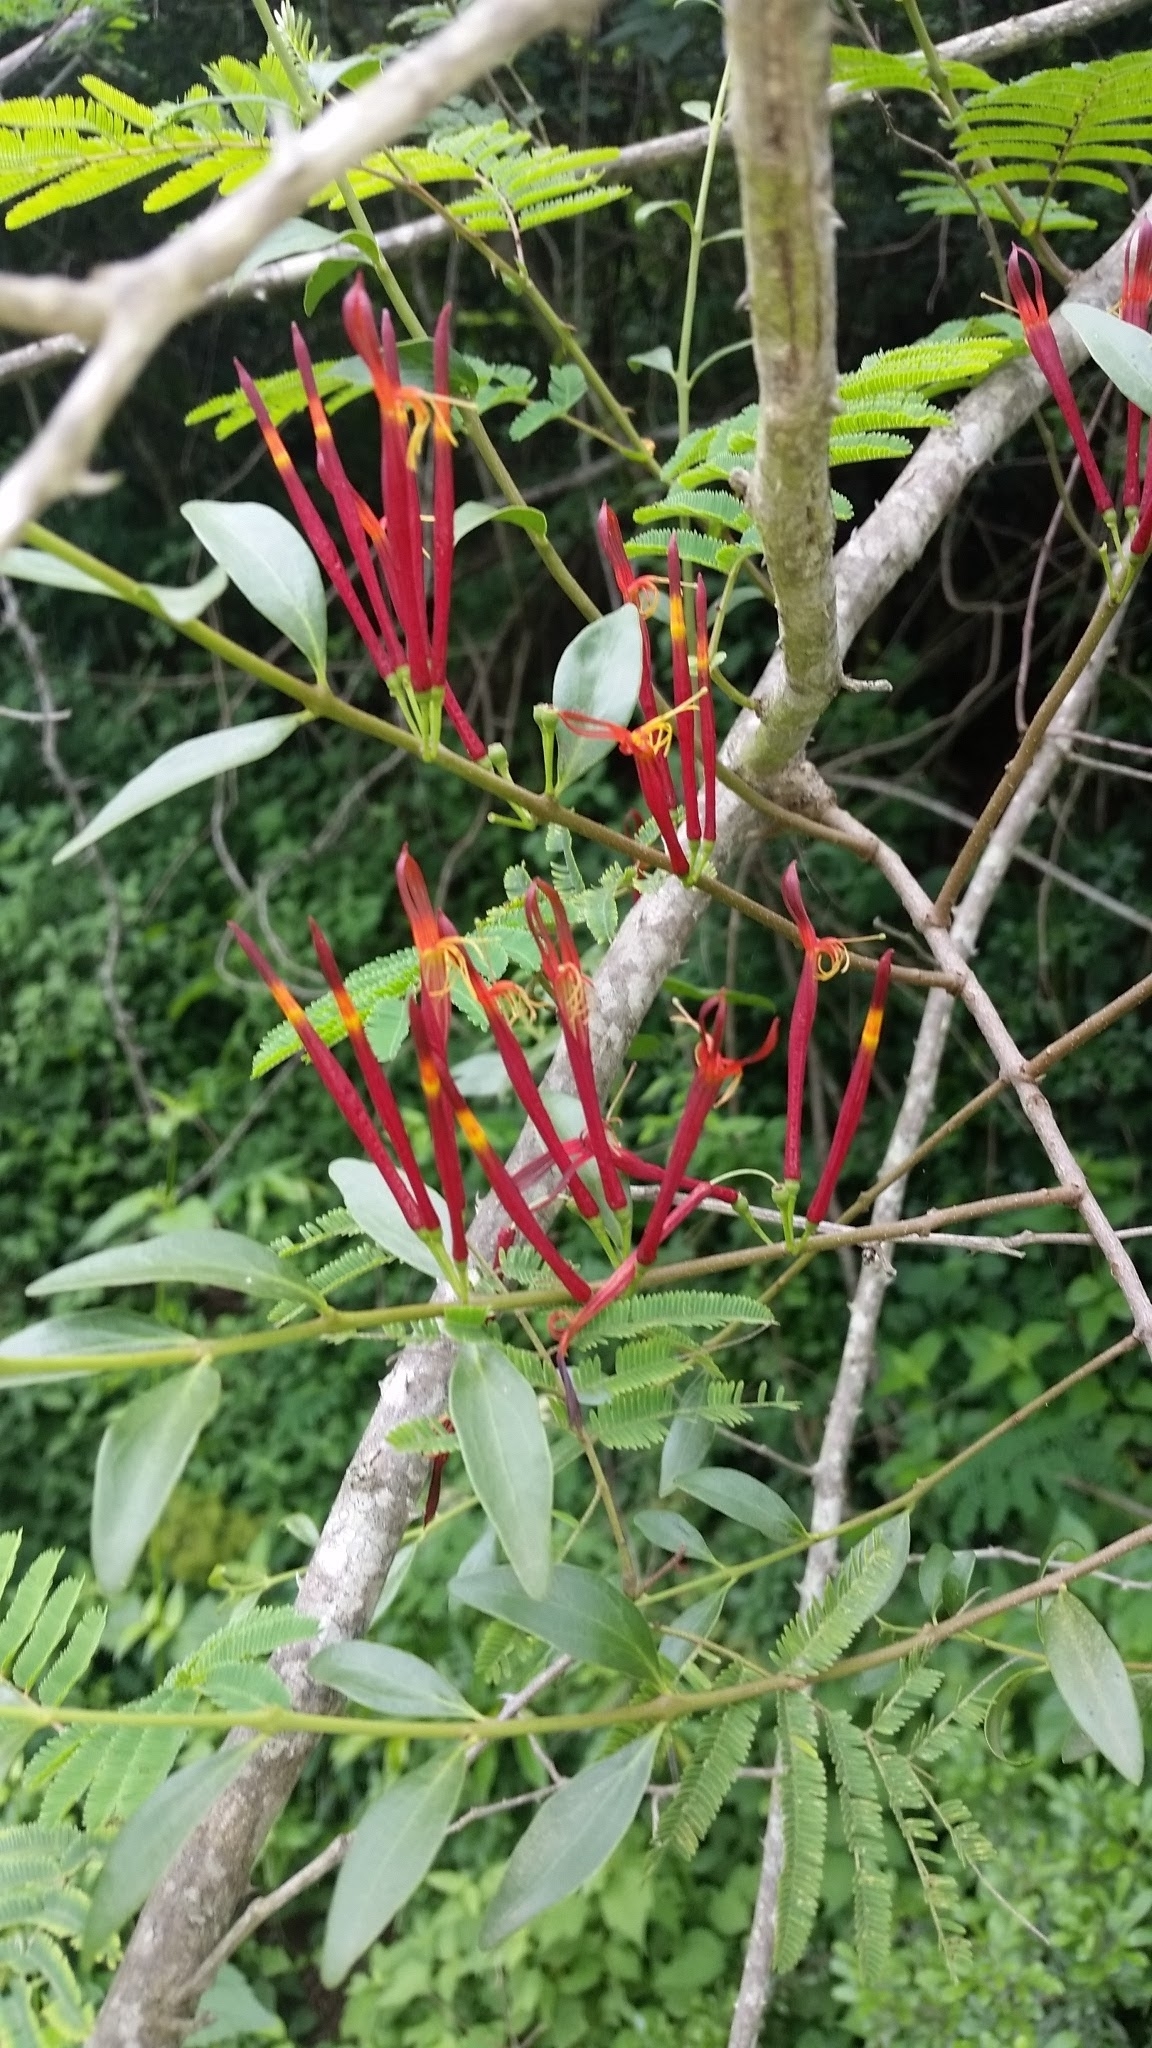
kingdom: Plantae
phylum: Tracheophyta
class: Magnoliopsida
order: Santalales
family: Loranthaceae
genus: Agelanthus
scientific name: Agelanthus gracilis
